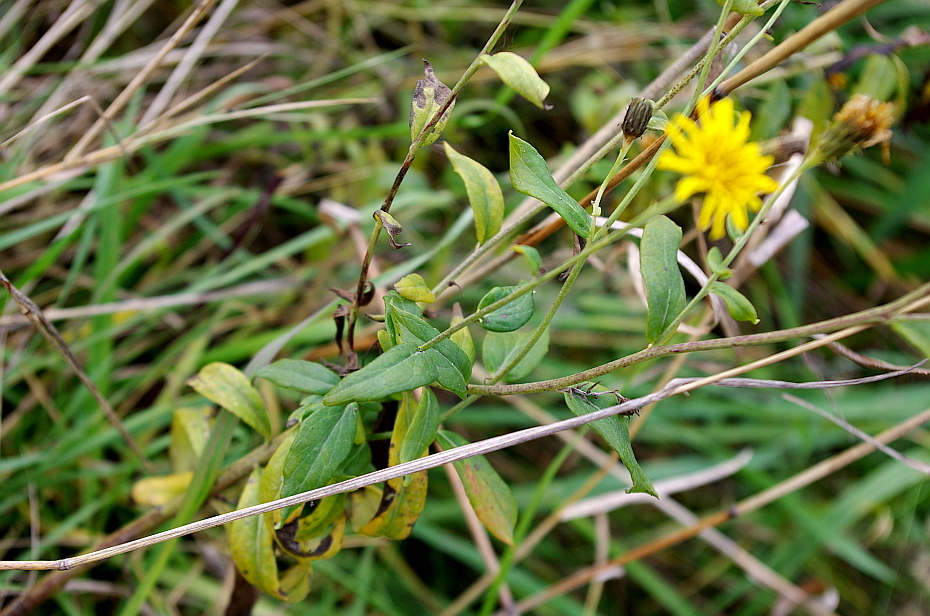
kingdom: Plantae
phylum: Tracheophyta
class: Magnoliopsida
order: Asterales
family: Asteraceae
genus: Hieracium
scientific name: Hieracium umbellatum
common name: Northern hawkweed
